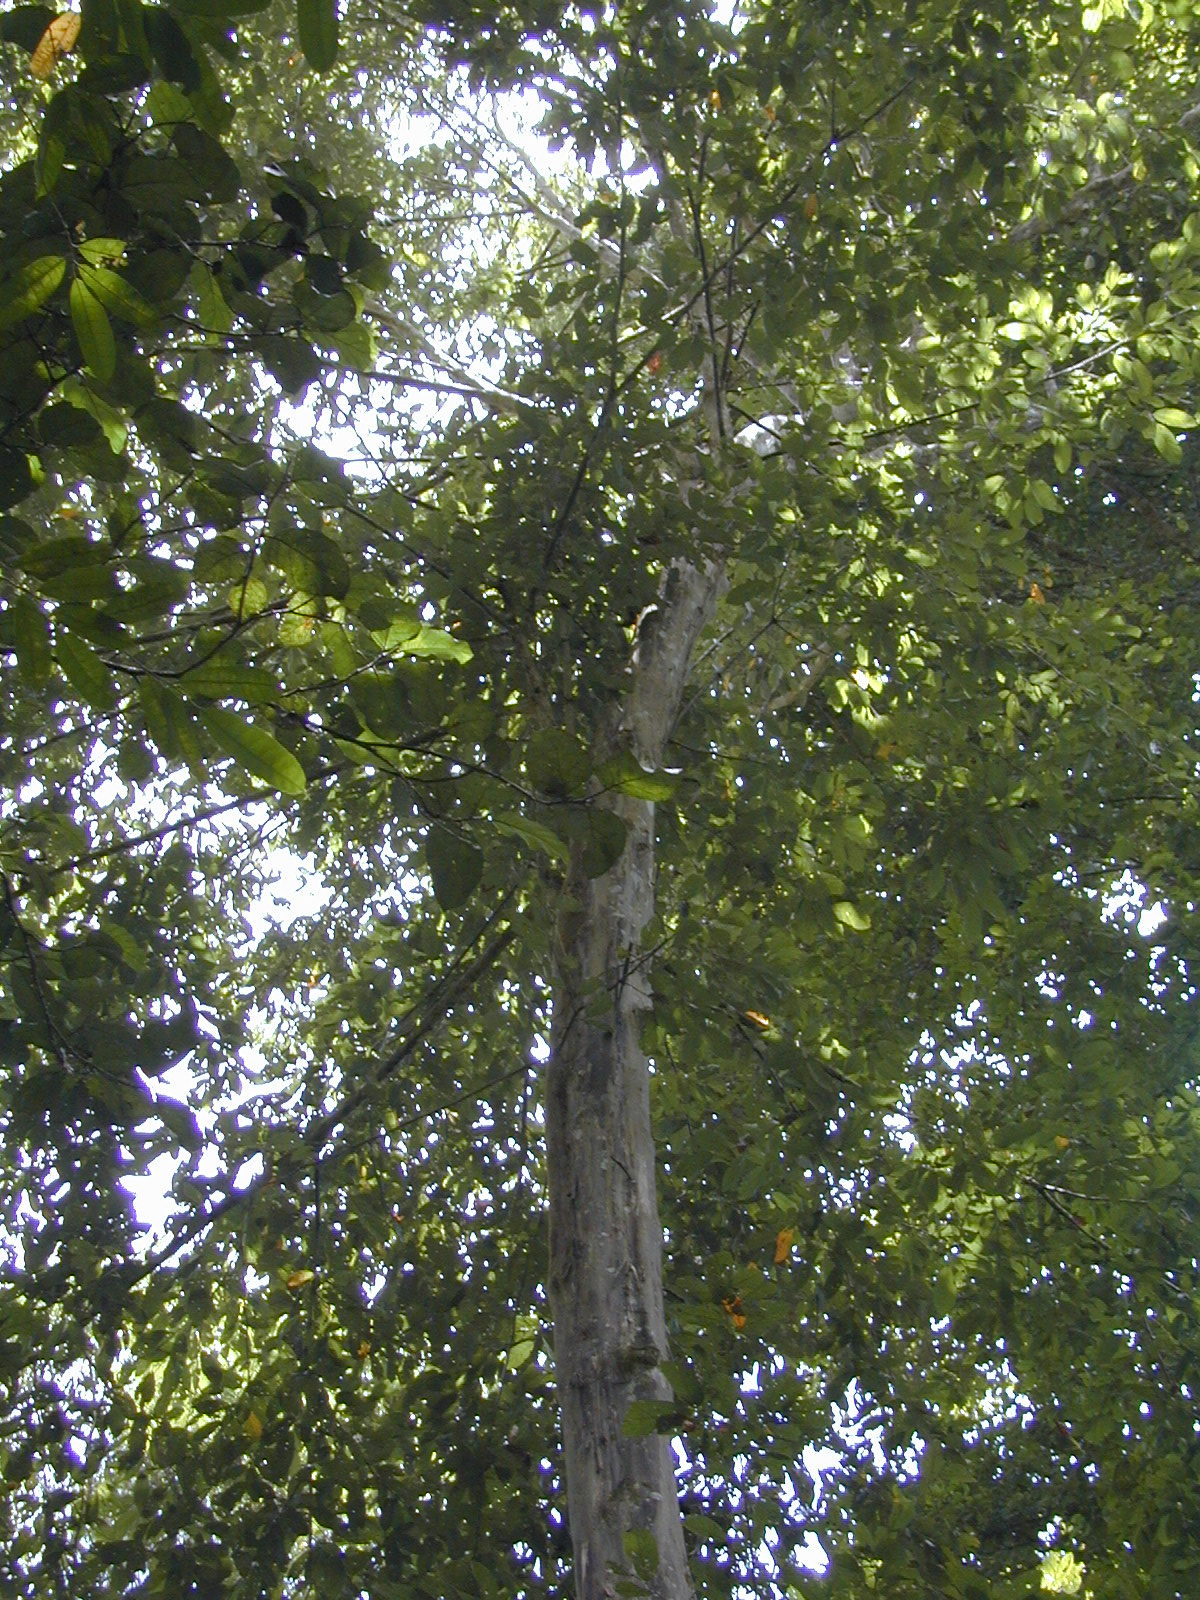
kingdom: Plantae
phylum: Tracheophyta
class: Magnoliopsida
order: Malvales
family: Malvaceae
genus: Quararibea
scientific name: Quararibea asterolepis
